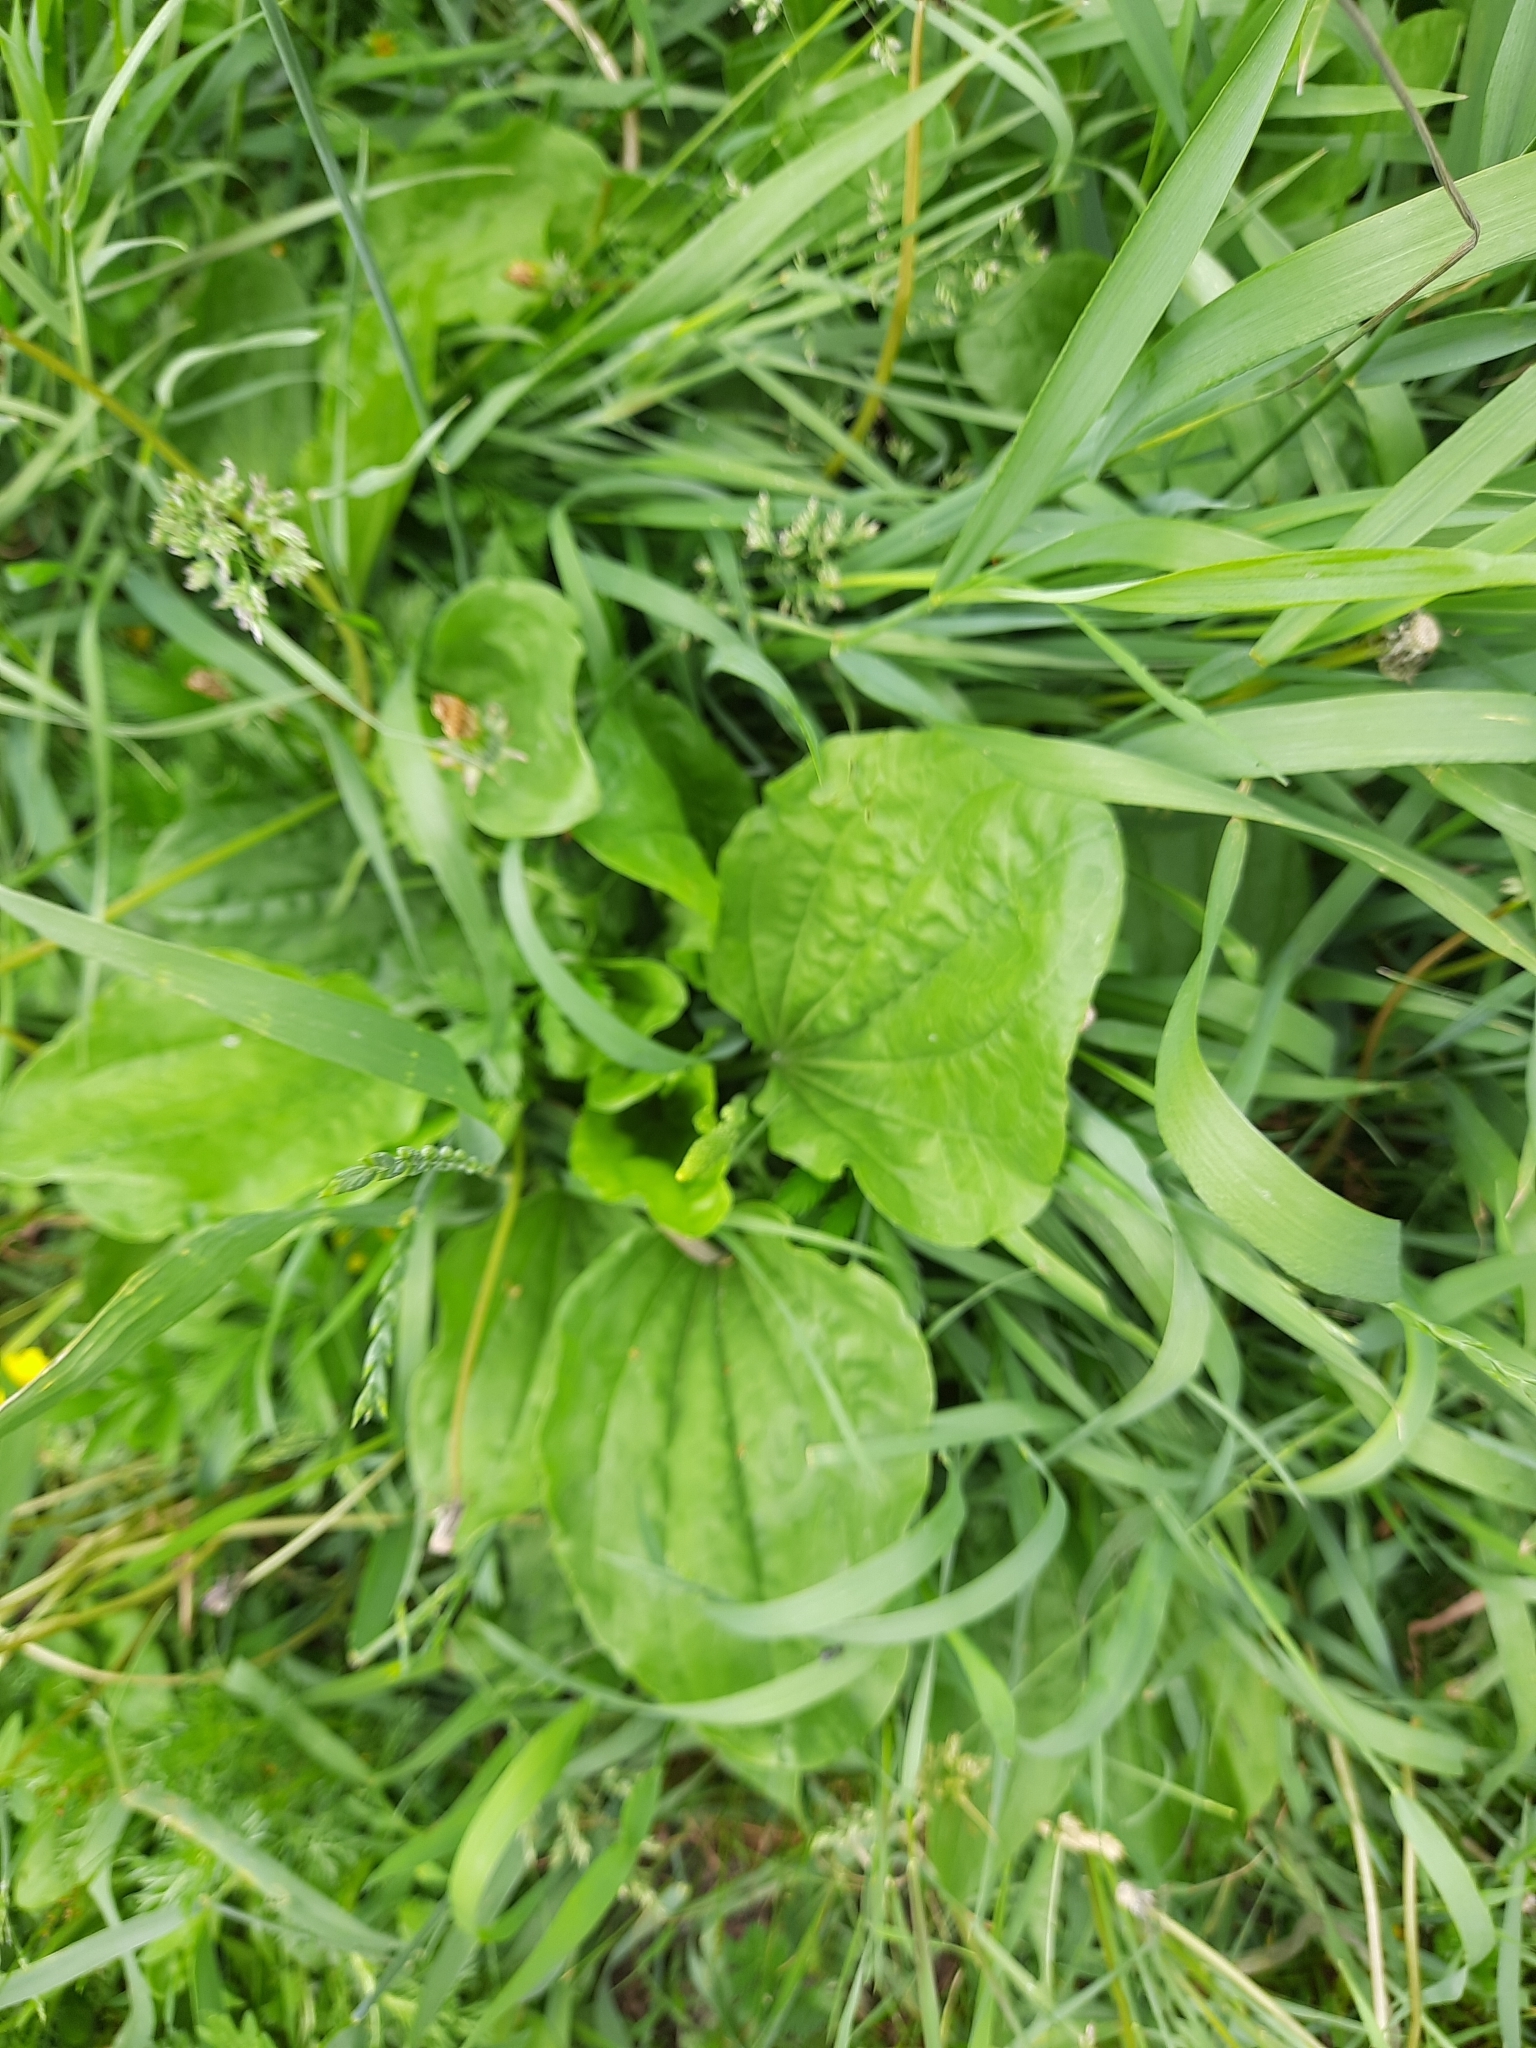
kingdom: Plantae
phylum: Tracheophyta
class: Magnoliopsida
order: Lamiales
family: Plantaginaceae
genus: Plantago
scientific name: Plantago major
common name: Common plantain
